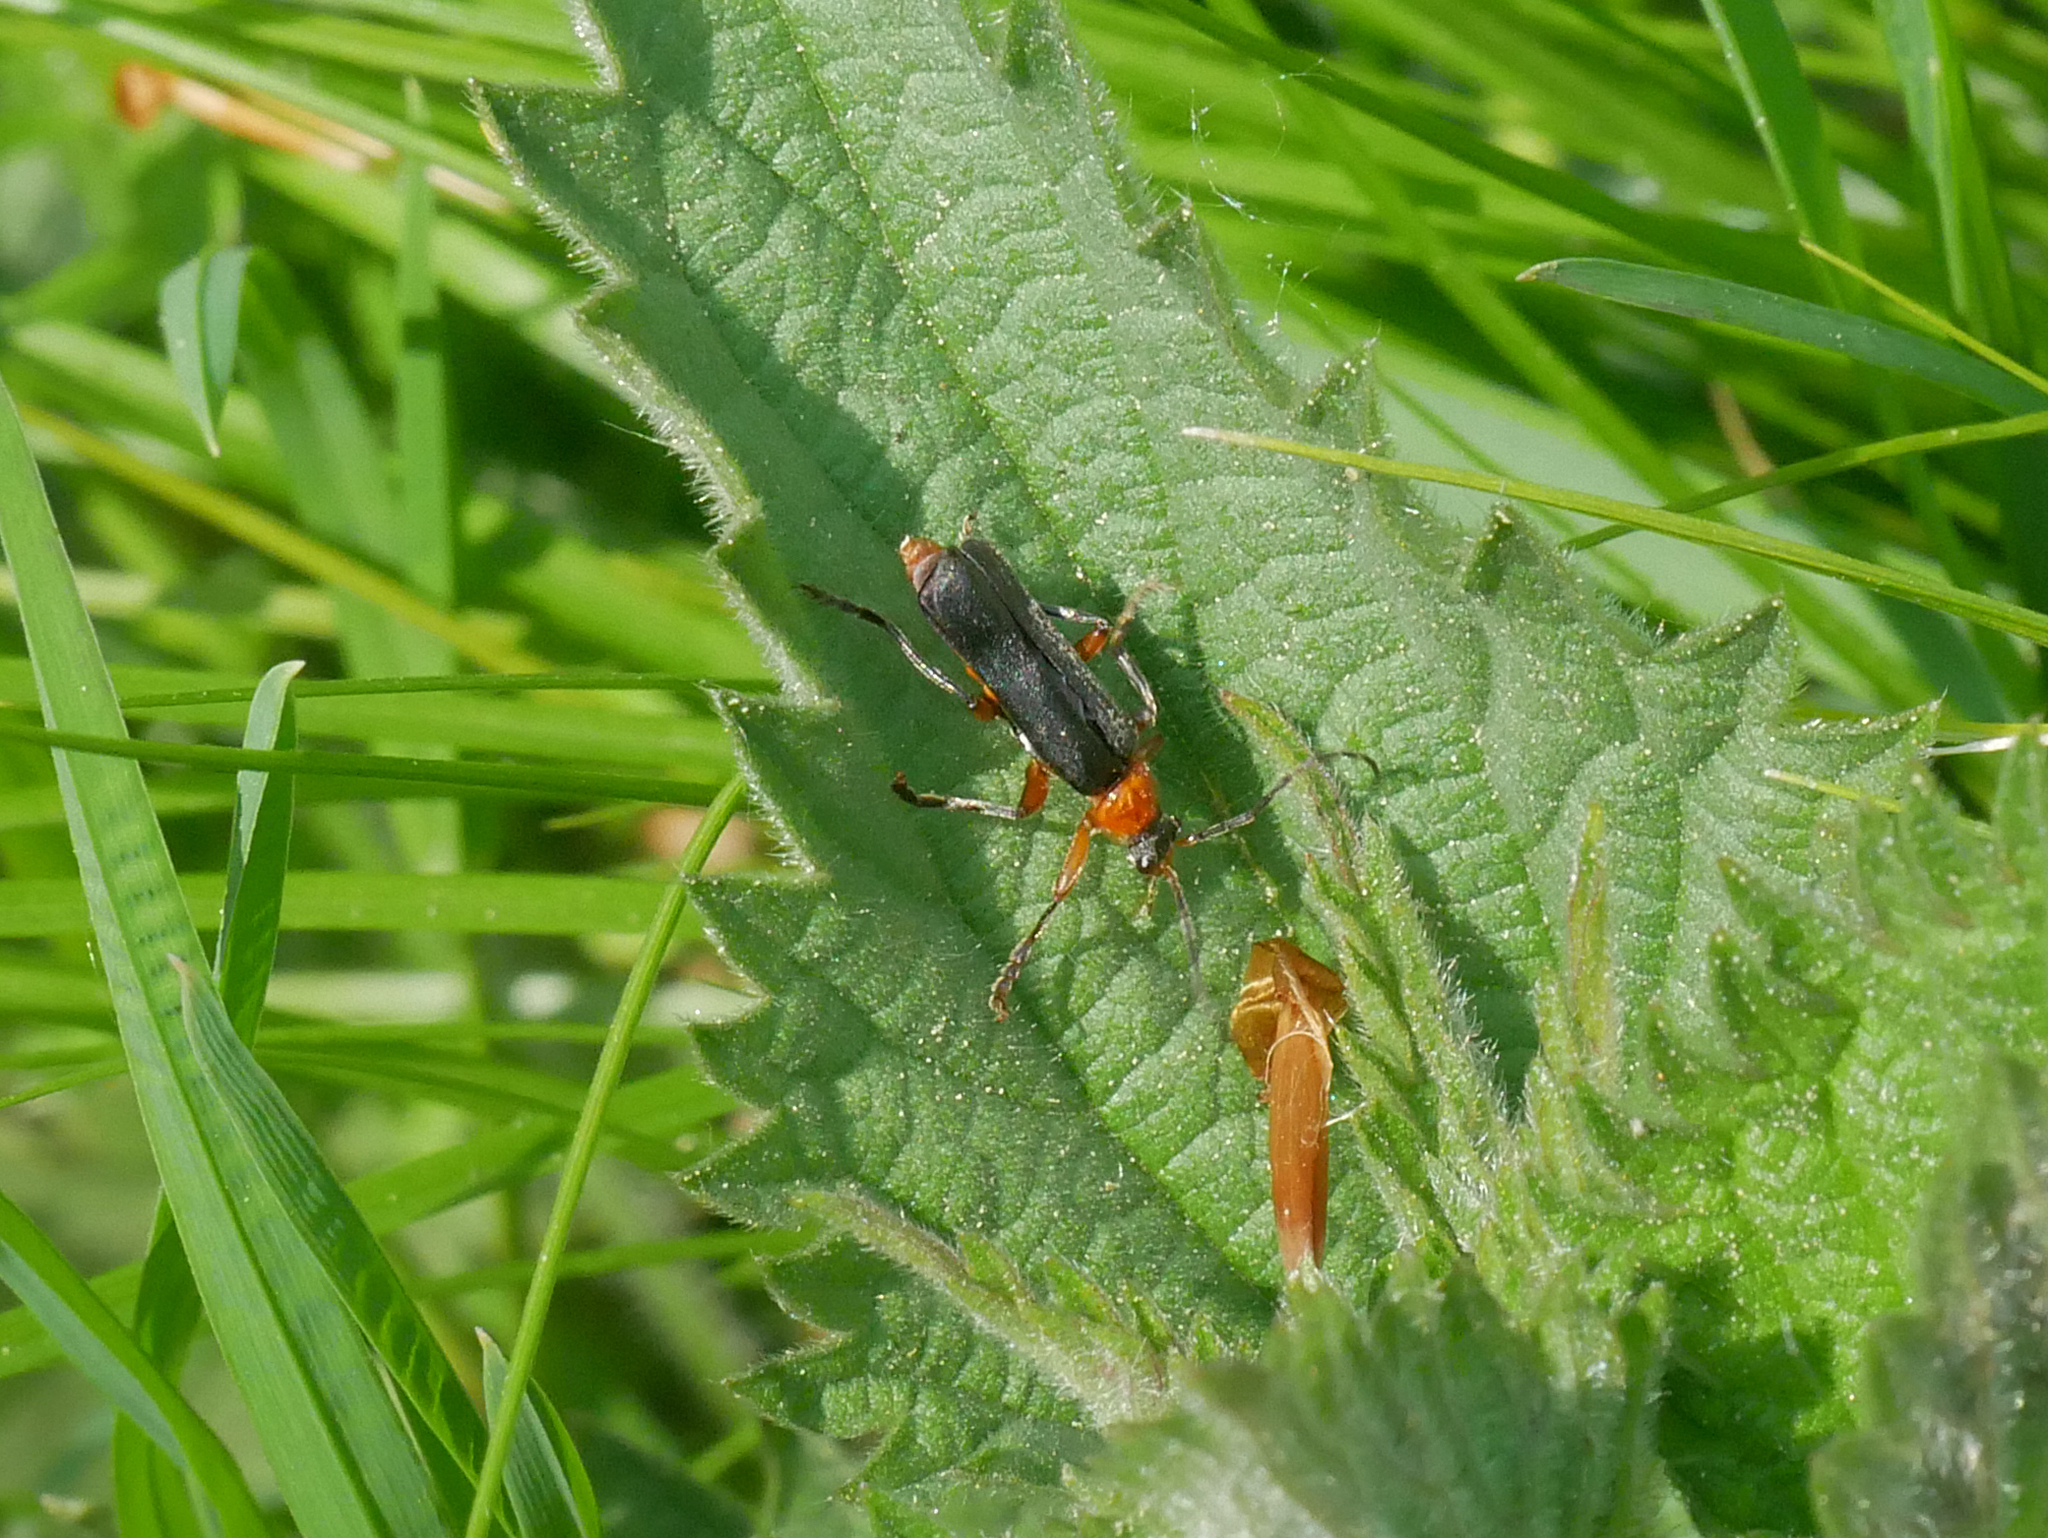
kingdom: Animalia
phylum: Arthropoda
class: Insecta
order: Coleoptera
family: Cantharidae
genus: Cantharis
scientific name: Cantharis pellucida
